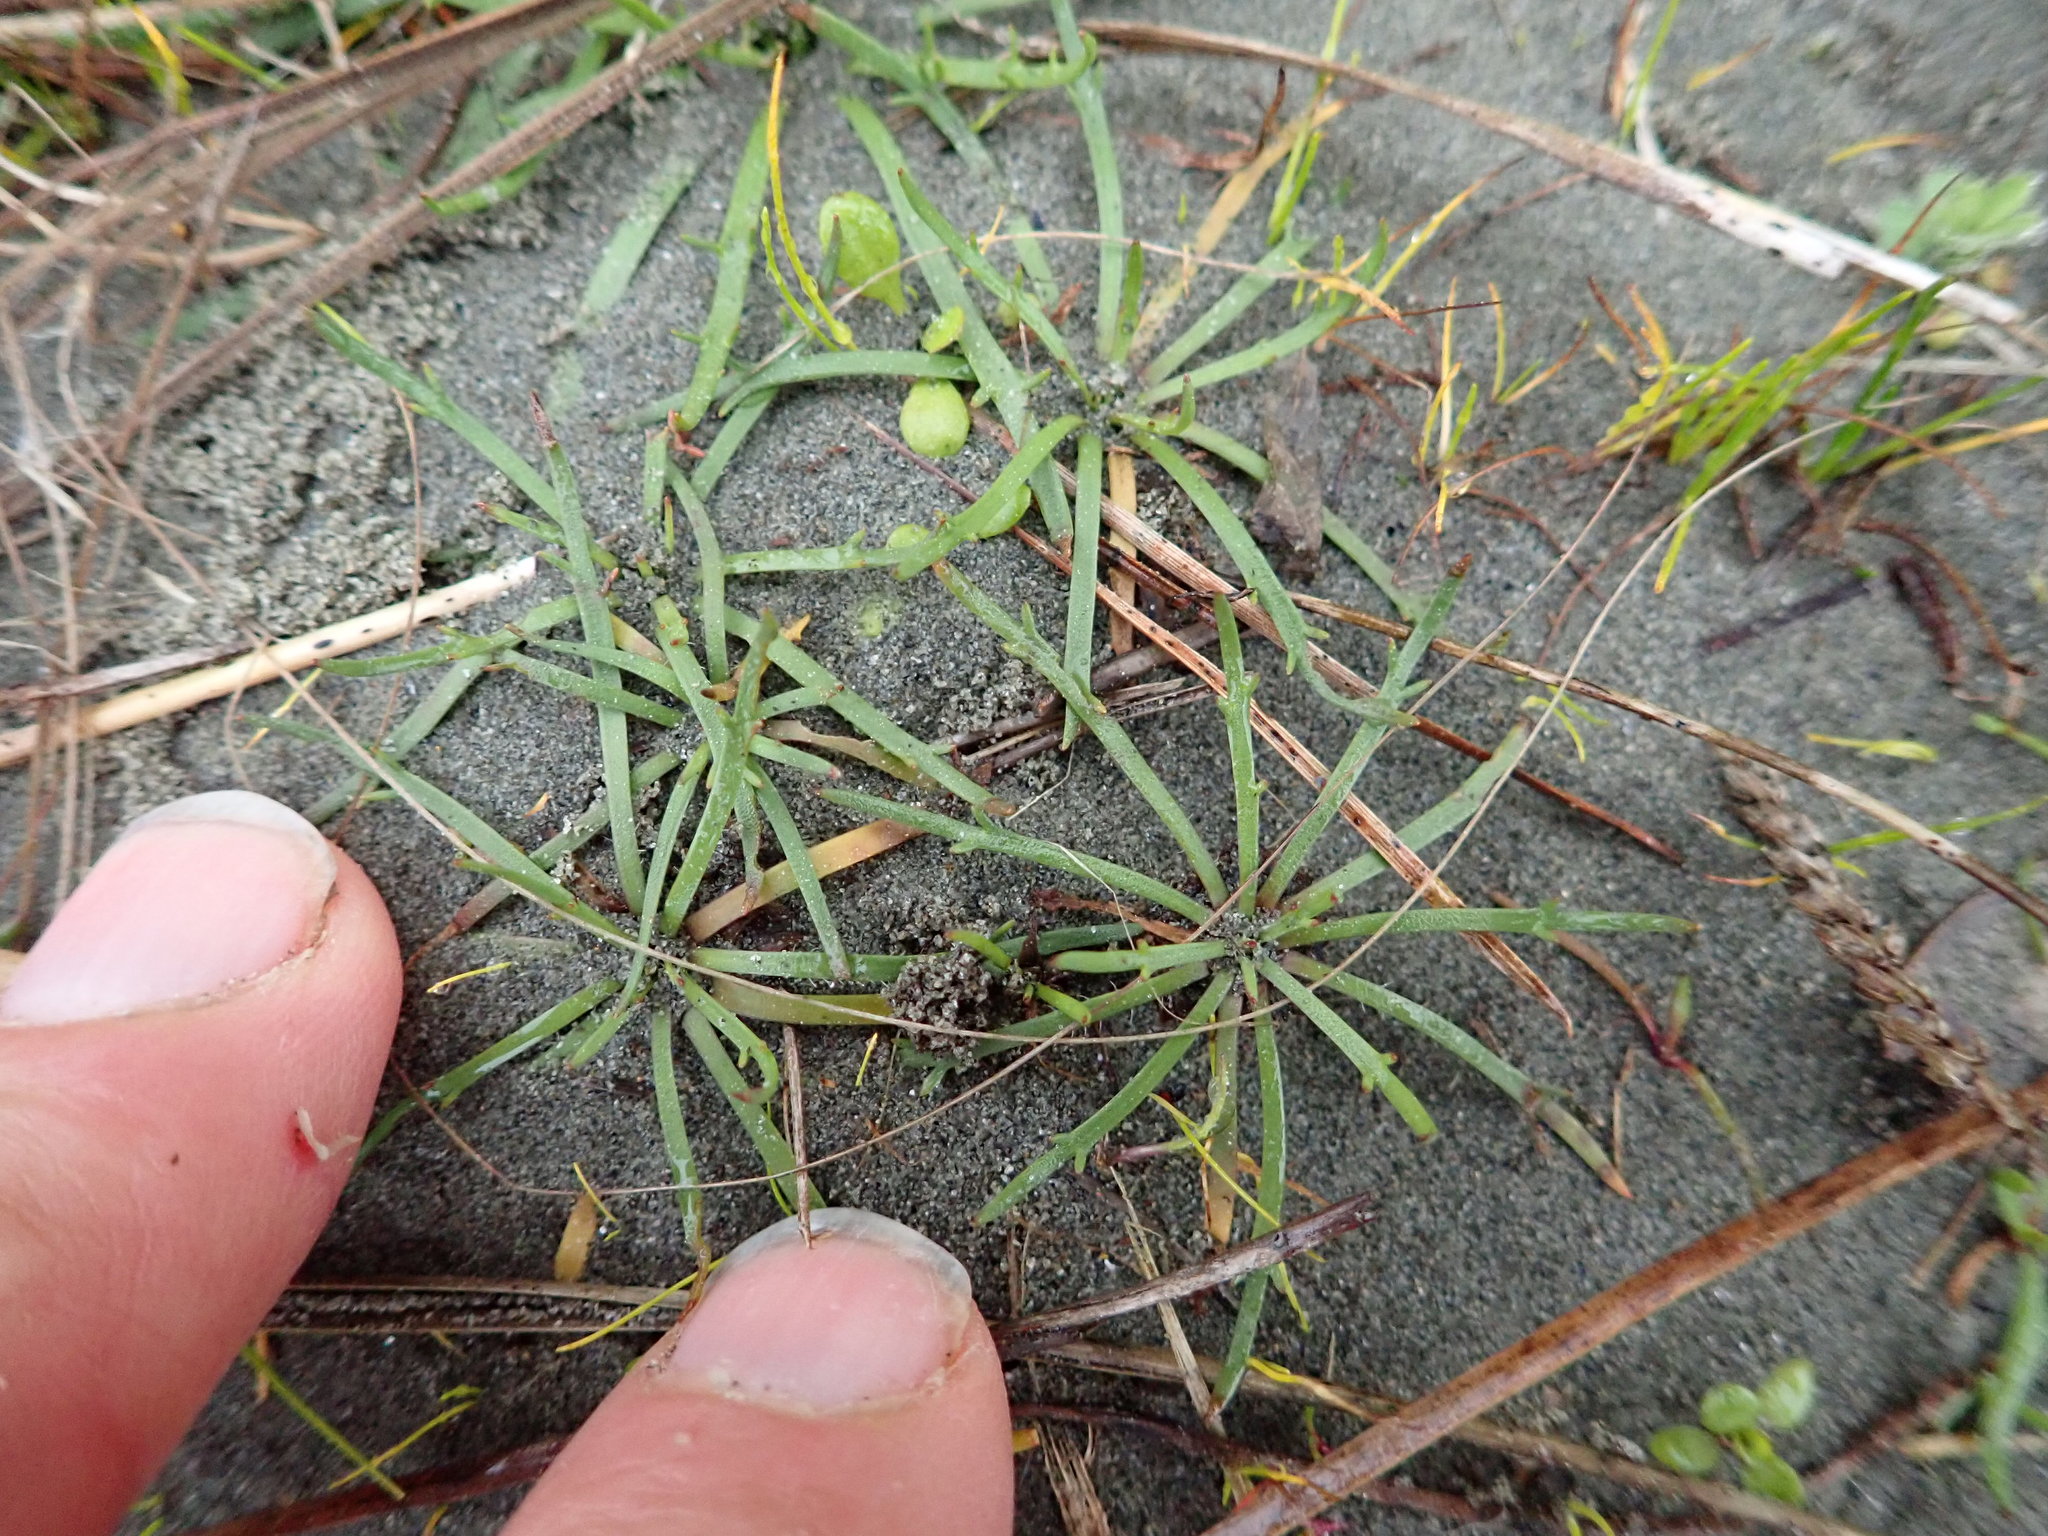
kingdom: Plantae
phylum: Tracheophyta
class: Magnoliopsida
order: Lamiales
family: Plantaginaceae
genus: Plantago
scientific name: Plantago coronopus
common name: Buck's-horn plantain
